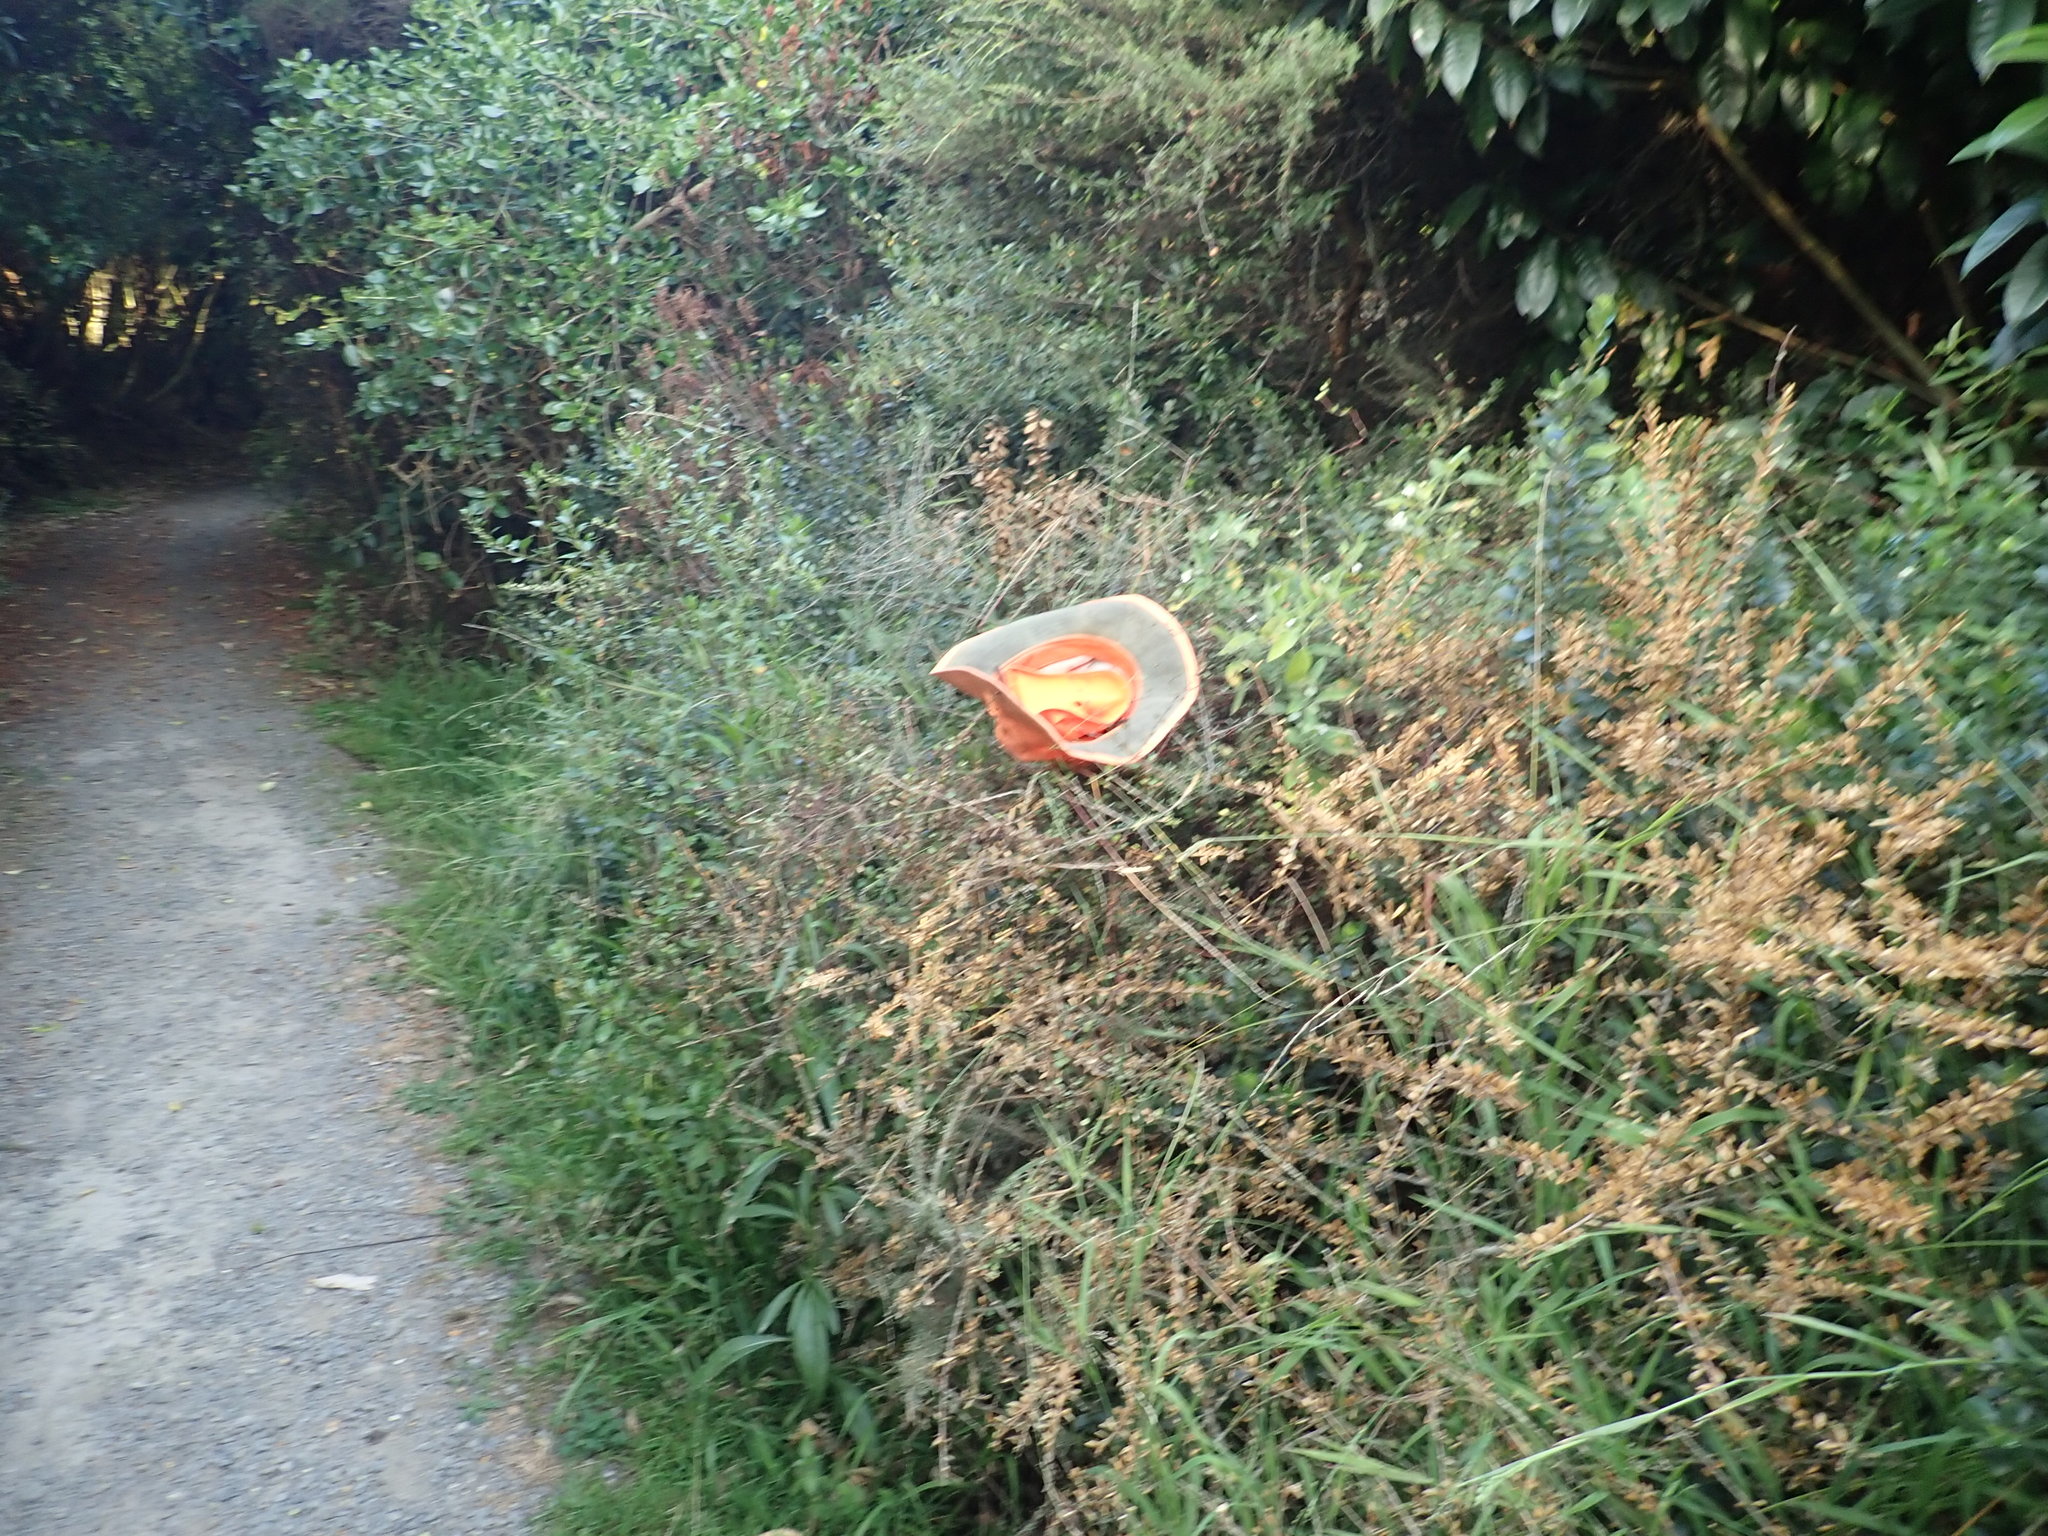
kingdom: Plantae
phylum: Tracheophyta
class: Magnoliopsida
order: Solanales
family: Solanaceae
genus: Solanum
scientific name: Solanum chenopodioides
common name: Tall nightshade
